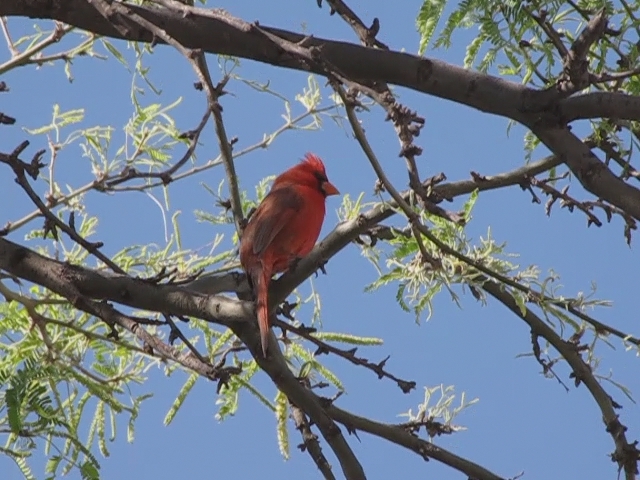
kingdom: Animalia
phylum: Chordata
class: Aves
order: Passeriformes
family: Cardinalidae
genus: Cardinalis
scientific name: Cardinalis cardinalis
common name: Northern cardinal
